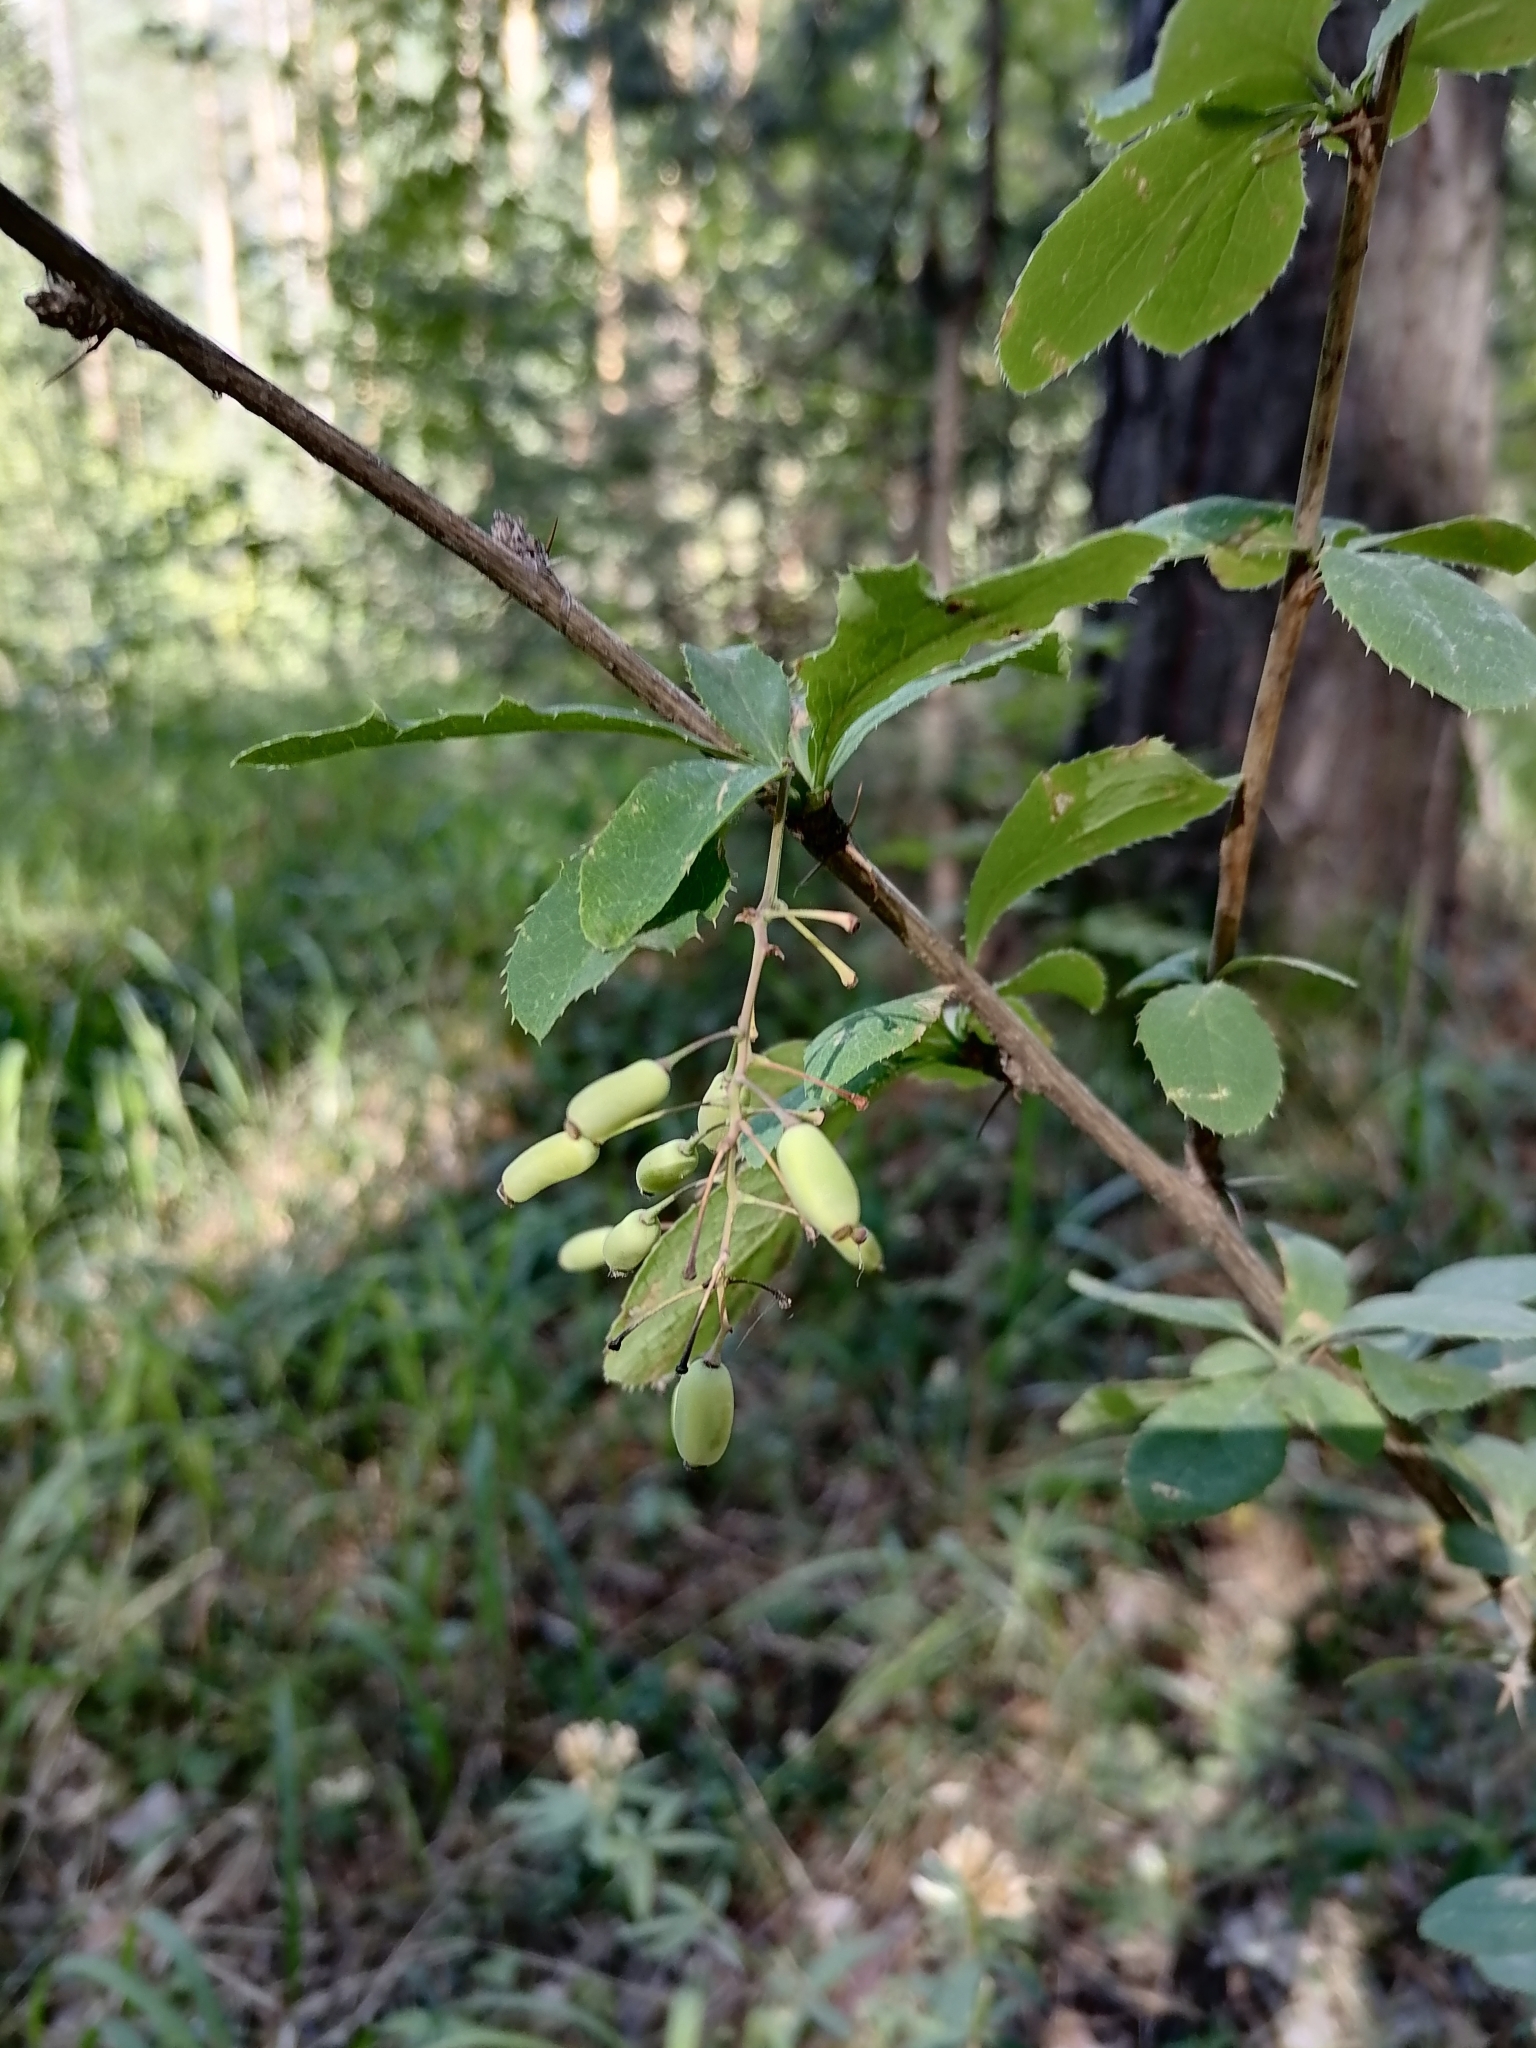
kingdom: Plantae
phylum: Tracheophyta
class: Magnoliopsida
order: Ranunculales
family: Berberidaceae
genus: Berberis
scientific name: Berberis vulgaris
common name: Barberry
